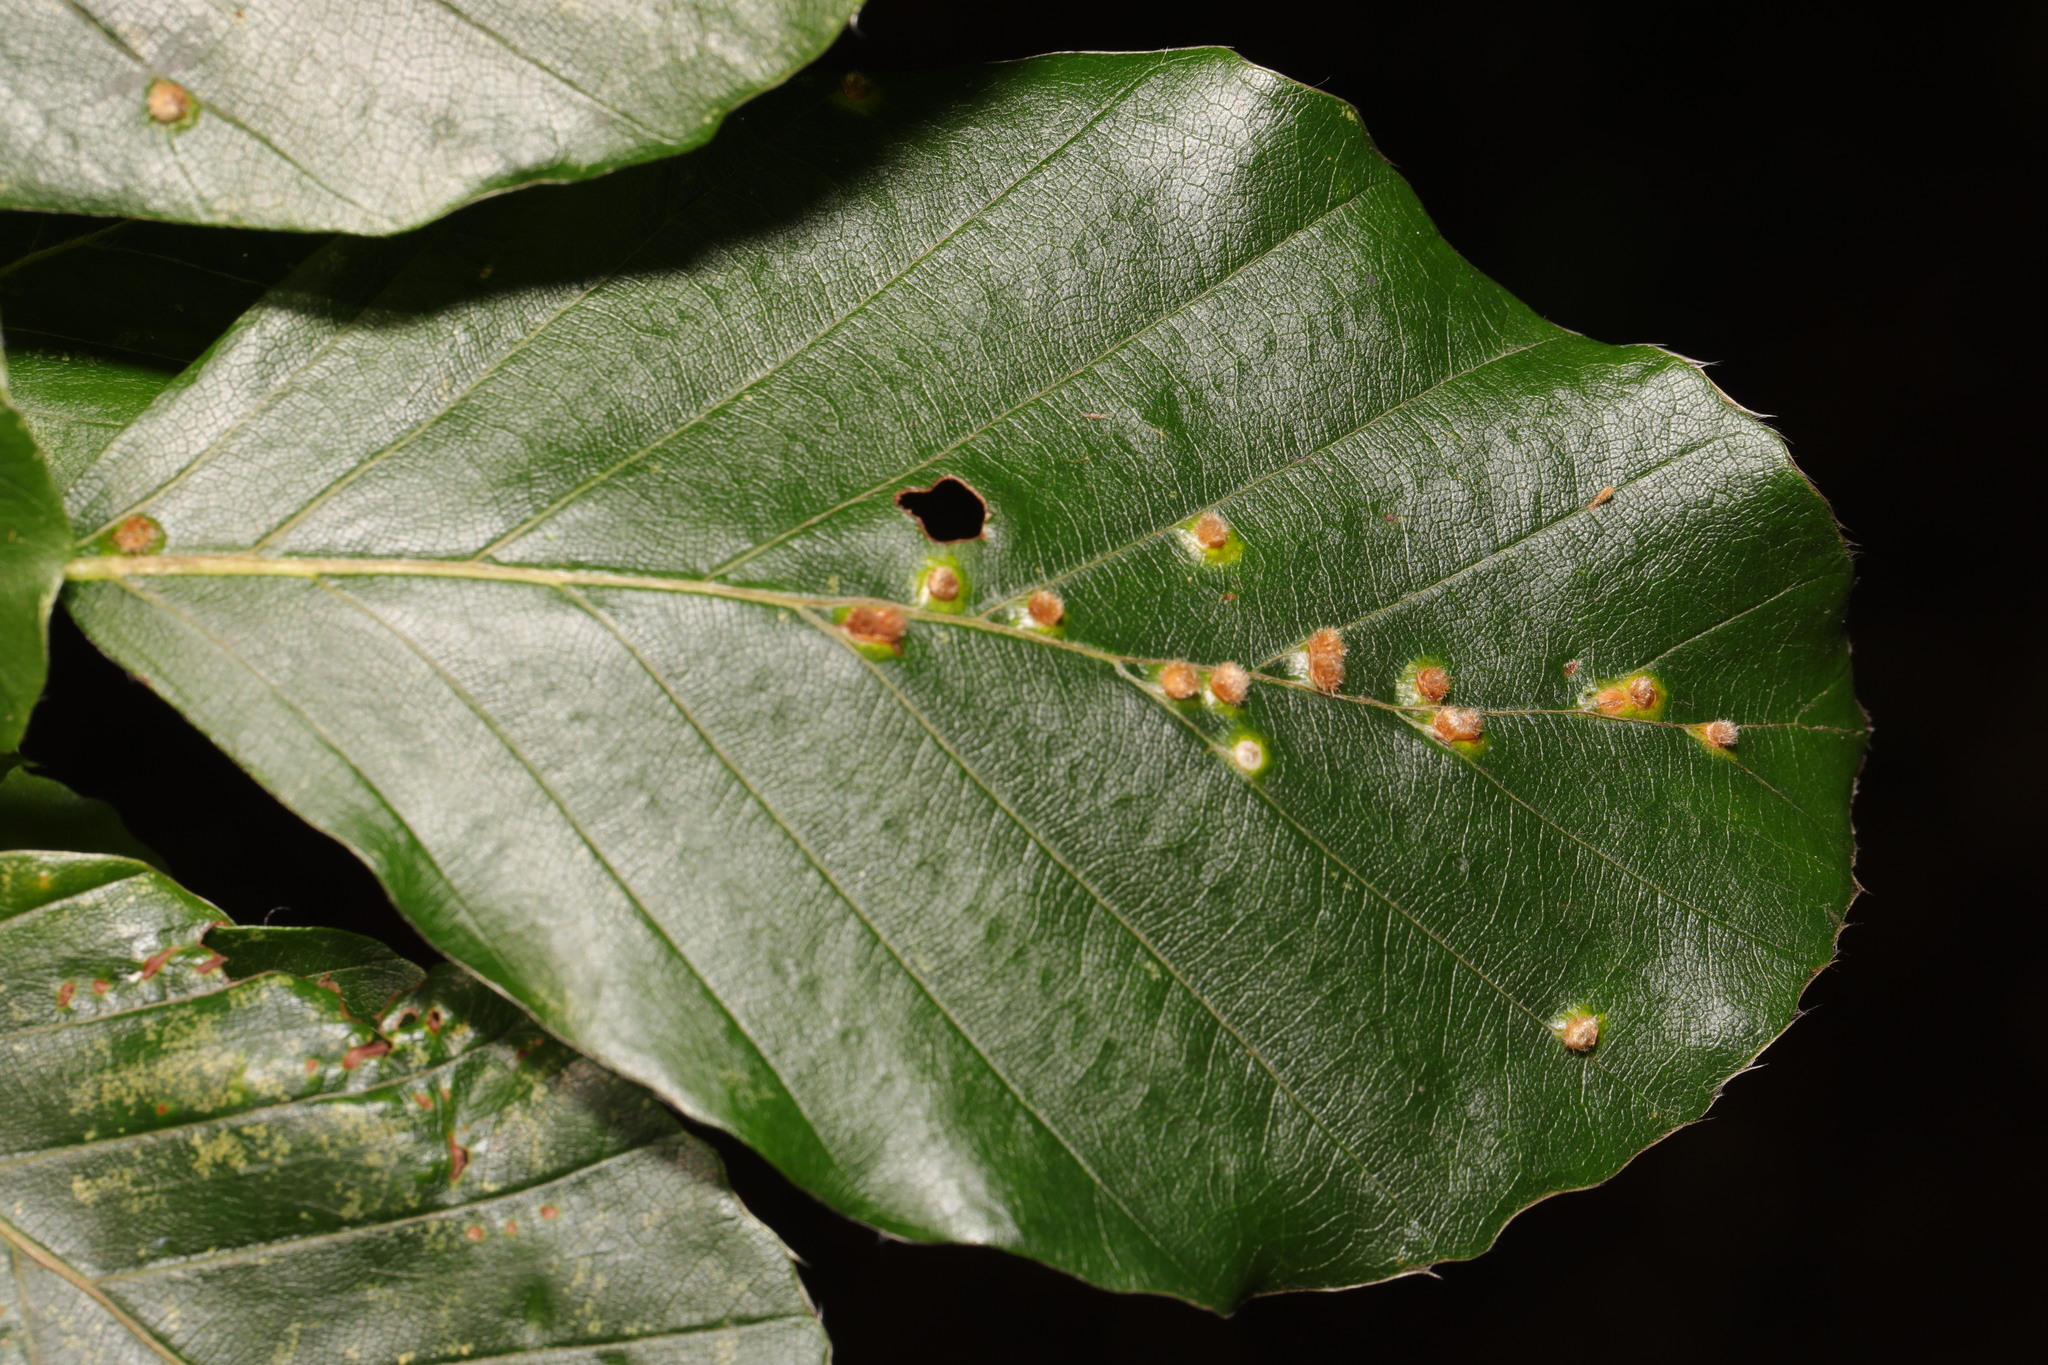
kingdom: Animalia
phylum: Arthropoda
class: Insecta
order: Diptera
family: Cecidomyiidae
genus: Hartigiola
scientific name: Hartigiola annulipes
